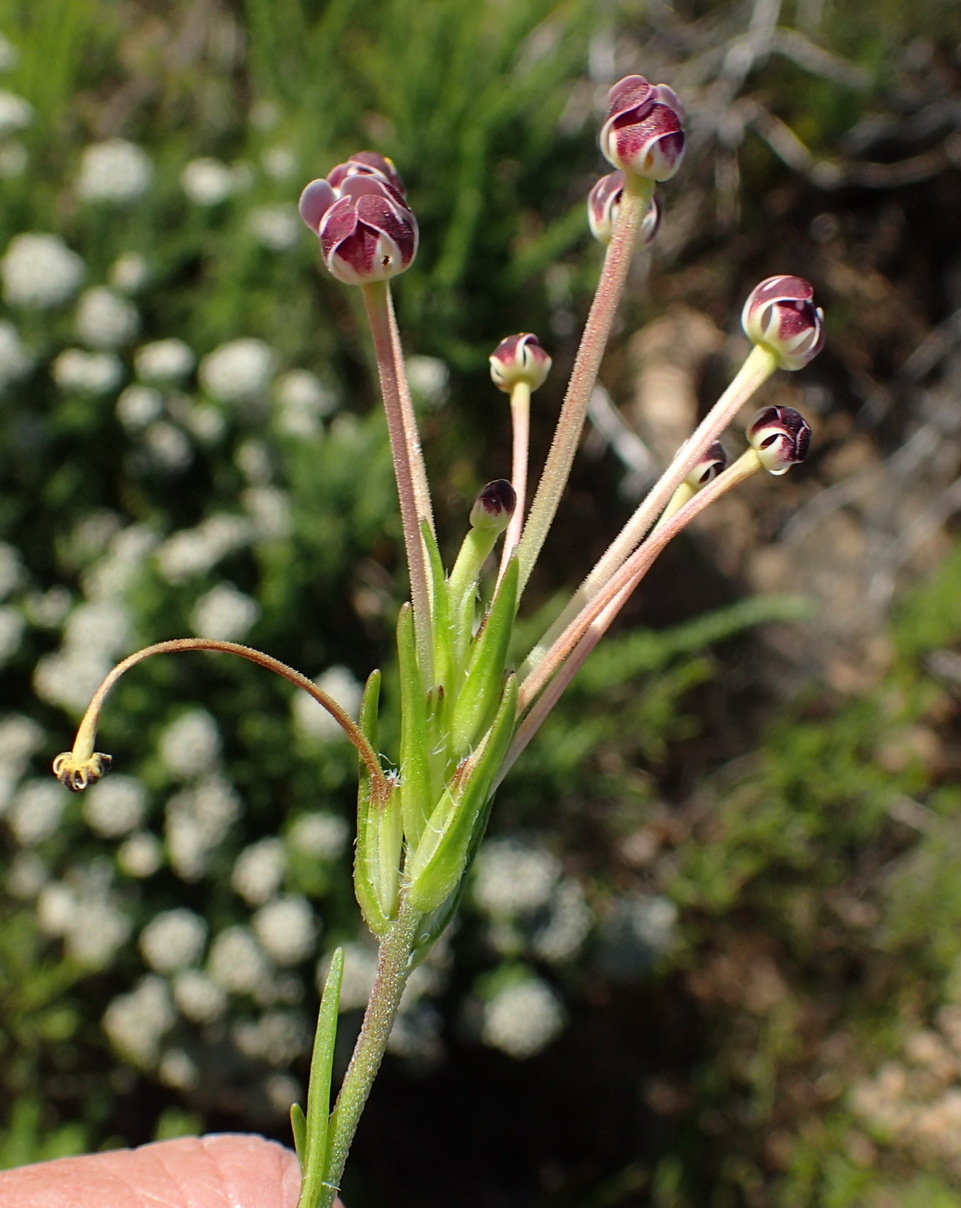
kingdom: Plantae
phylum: Tracheophyta
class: Magnoliopsida
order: Lamiales
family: Scrophulariaceae
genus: Zaluzianskya
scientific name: Zaluzianskya capensis
